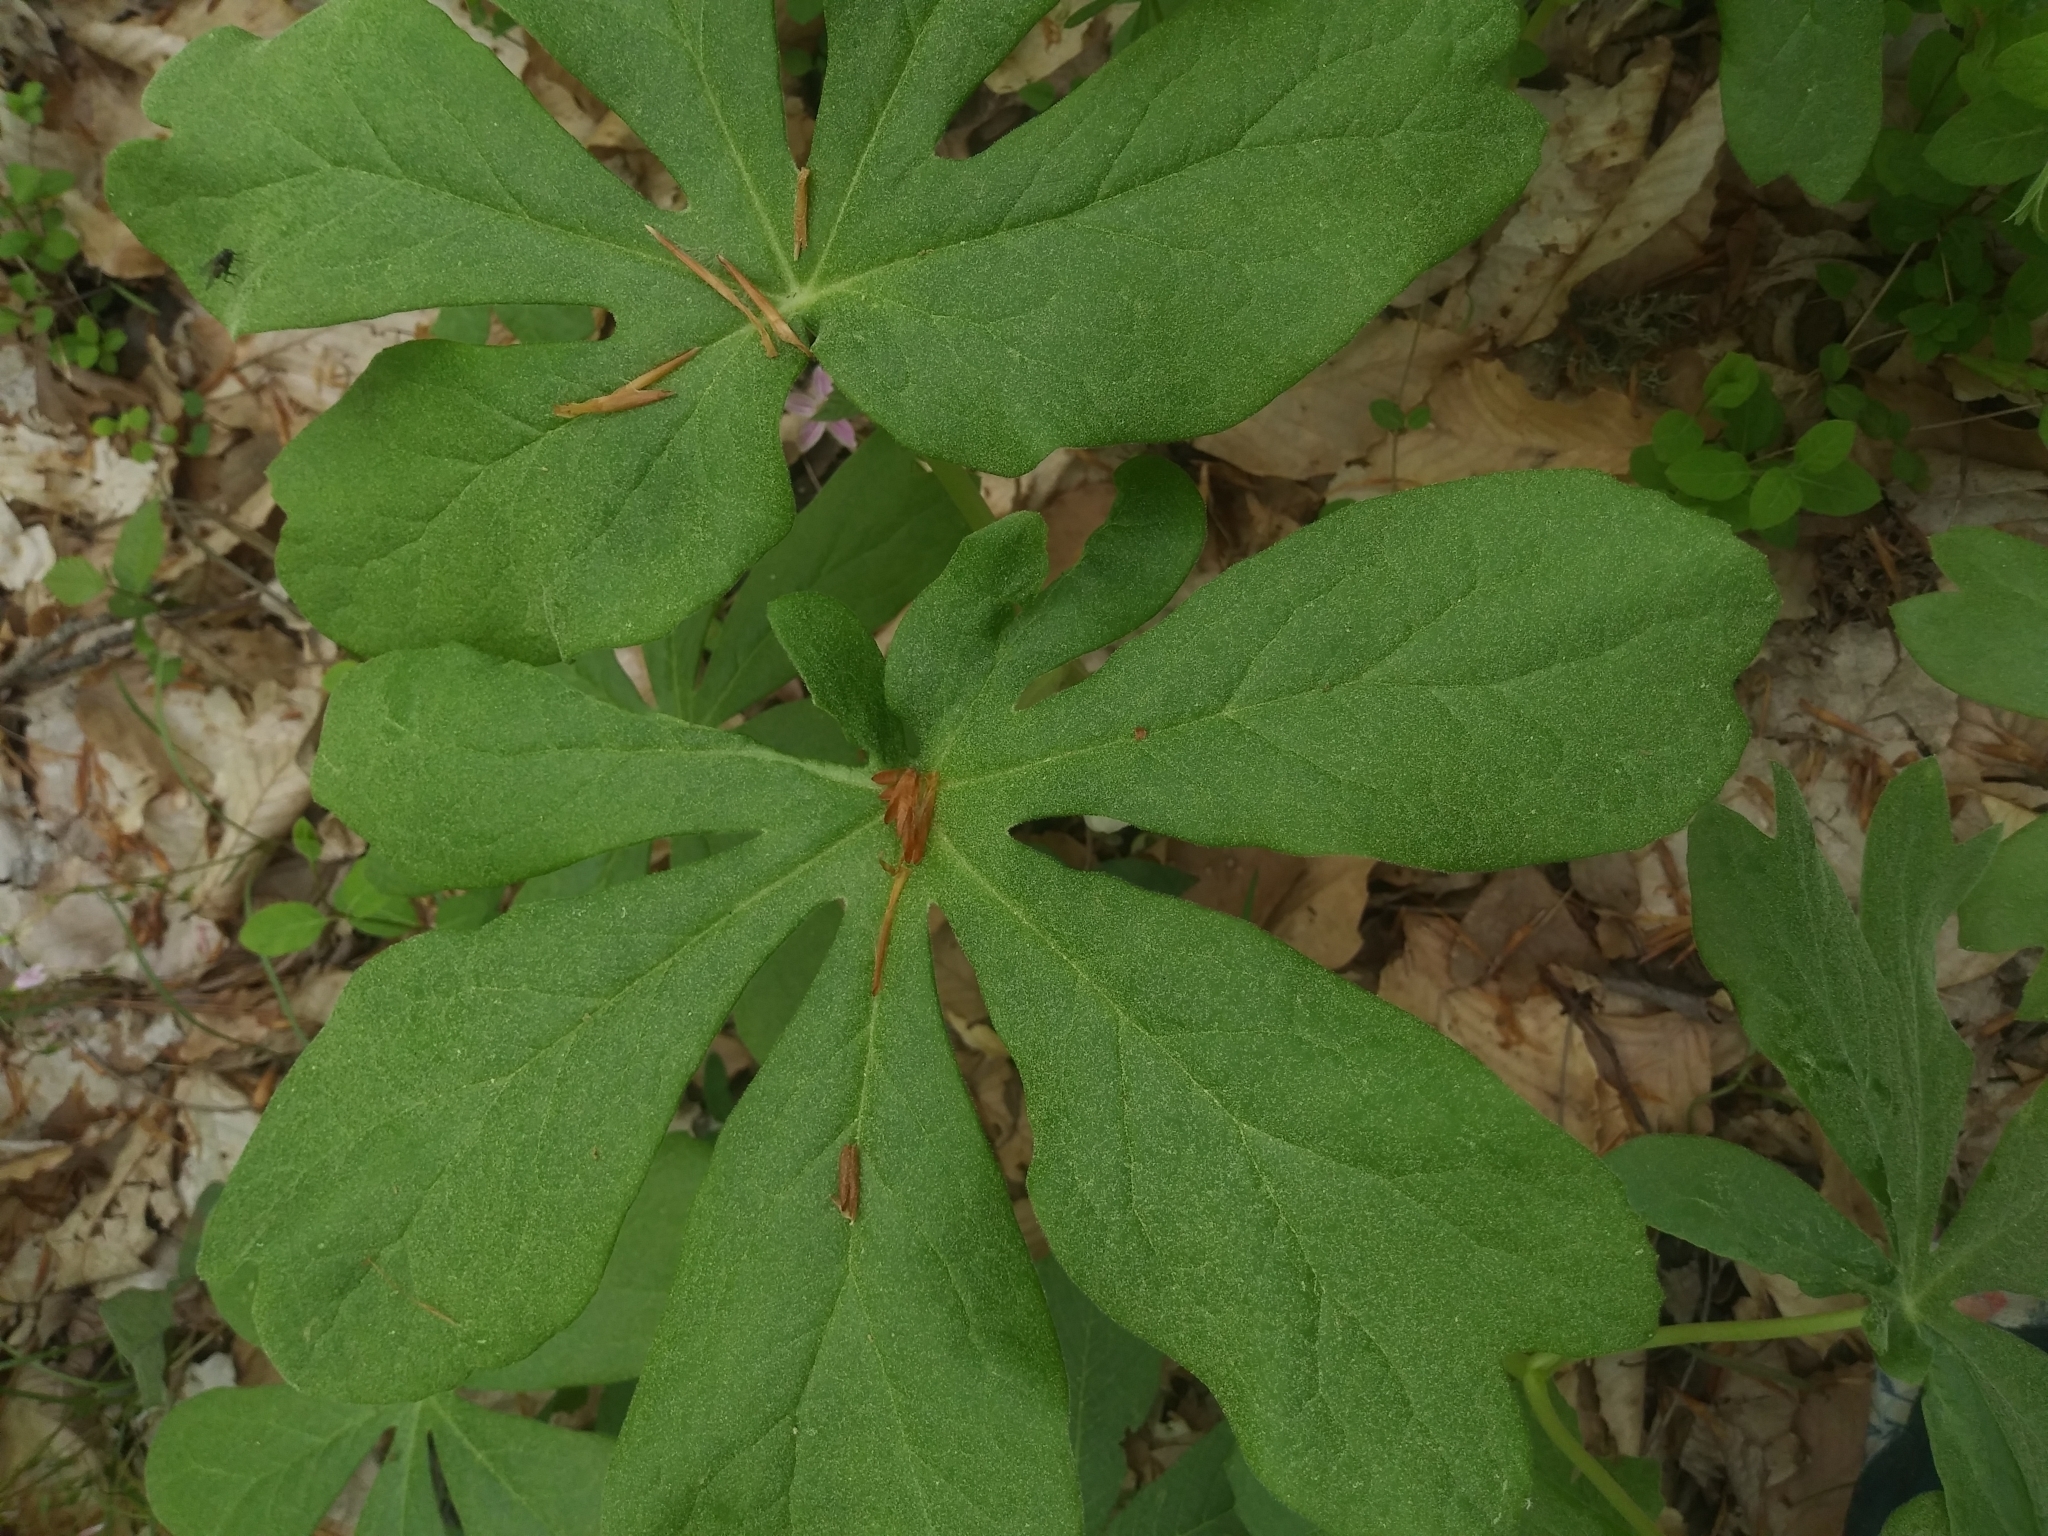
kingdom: Plantae
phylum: Tracheophyta
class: Magnoliopsida
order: Ranunculales
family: Berberidaceae
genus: Podophyllum
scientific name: Podophyllum peltatum
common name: Wild mandrake
